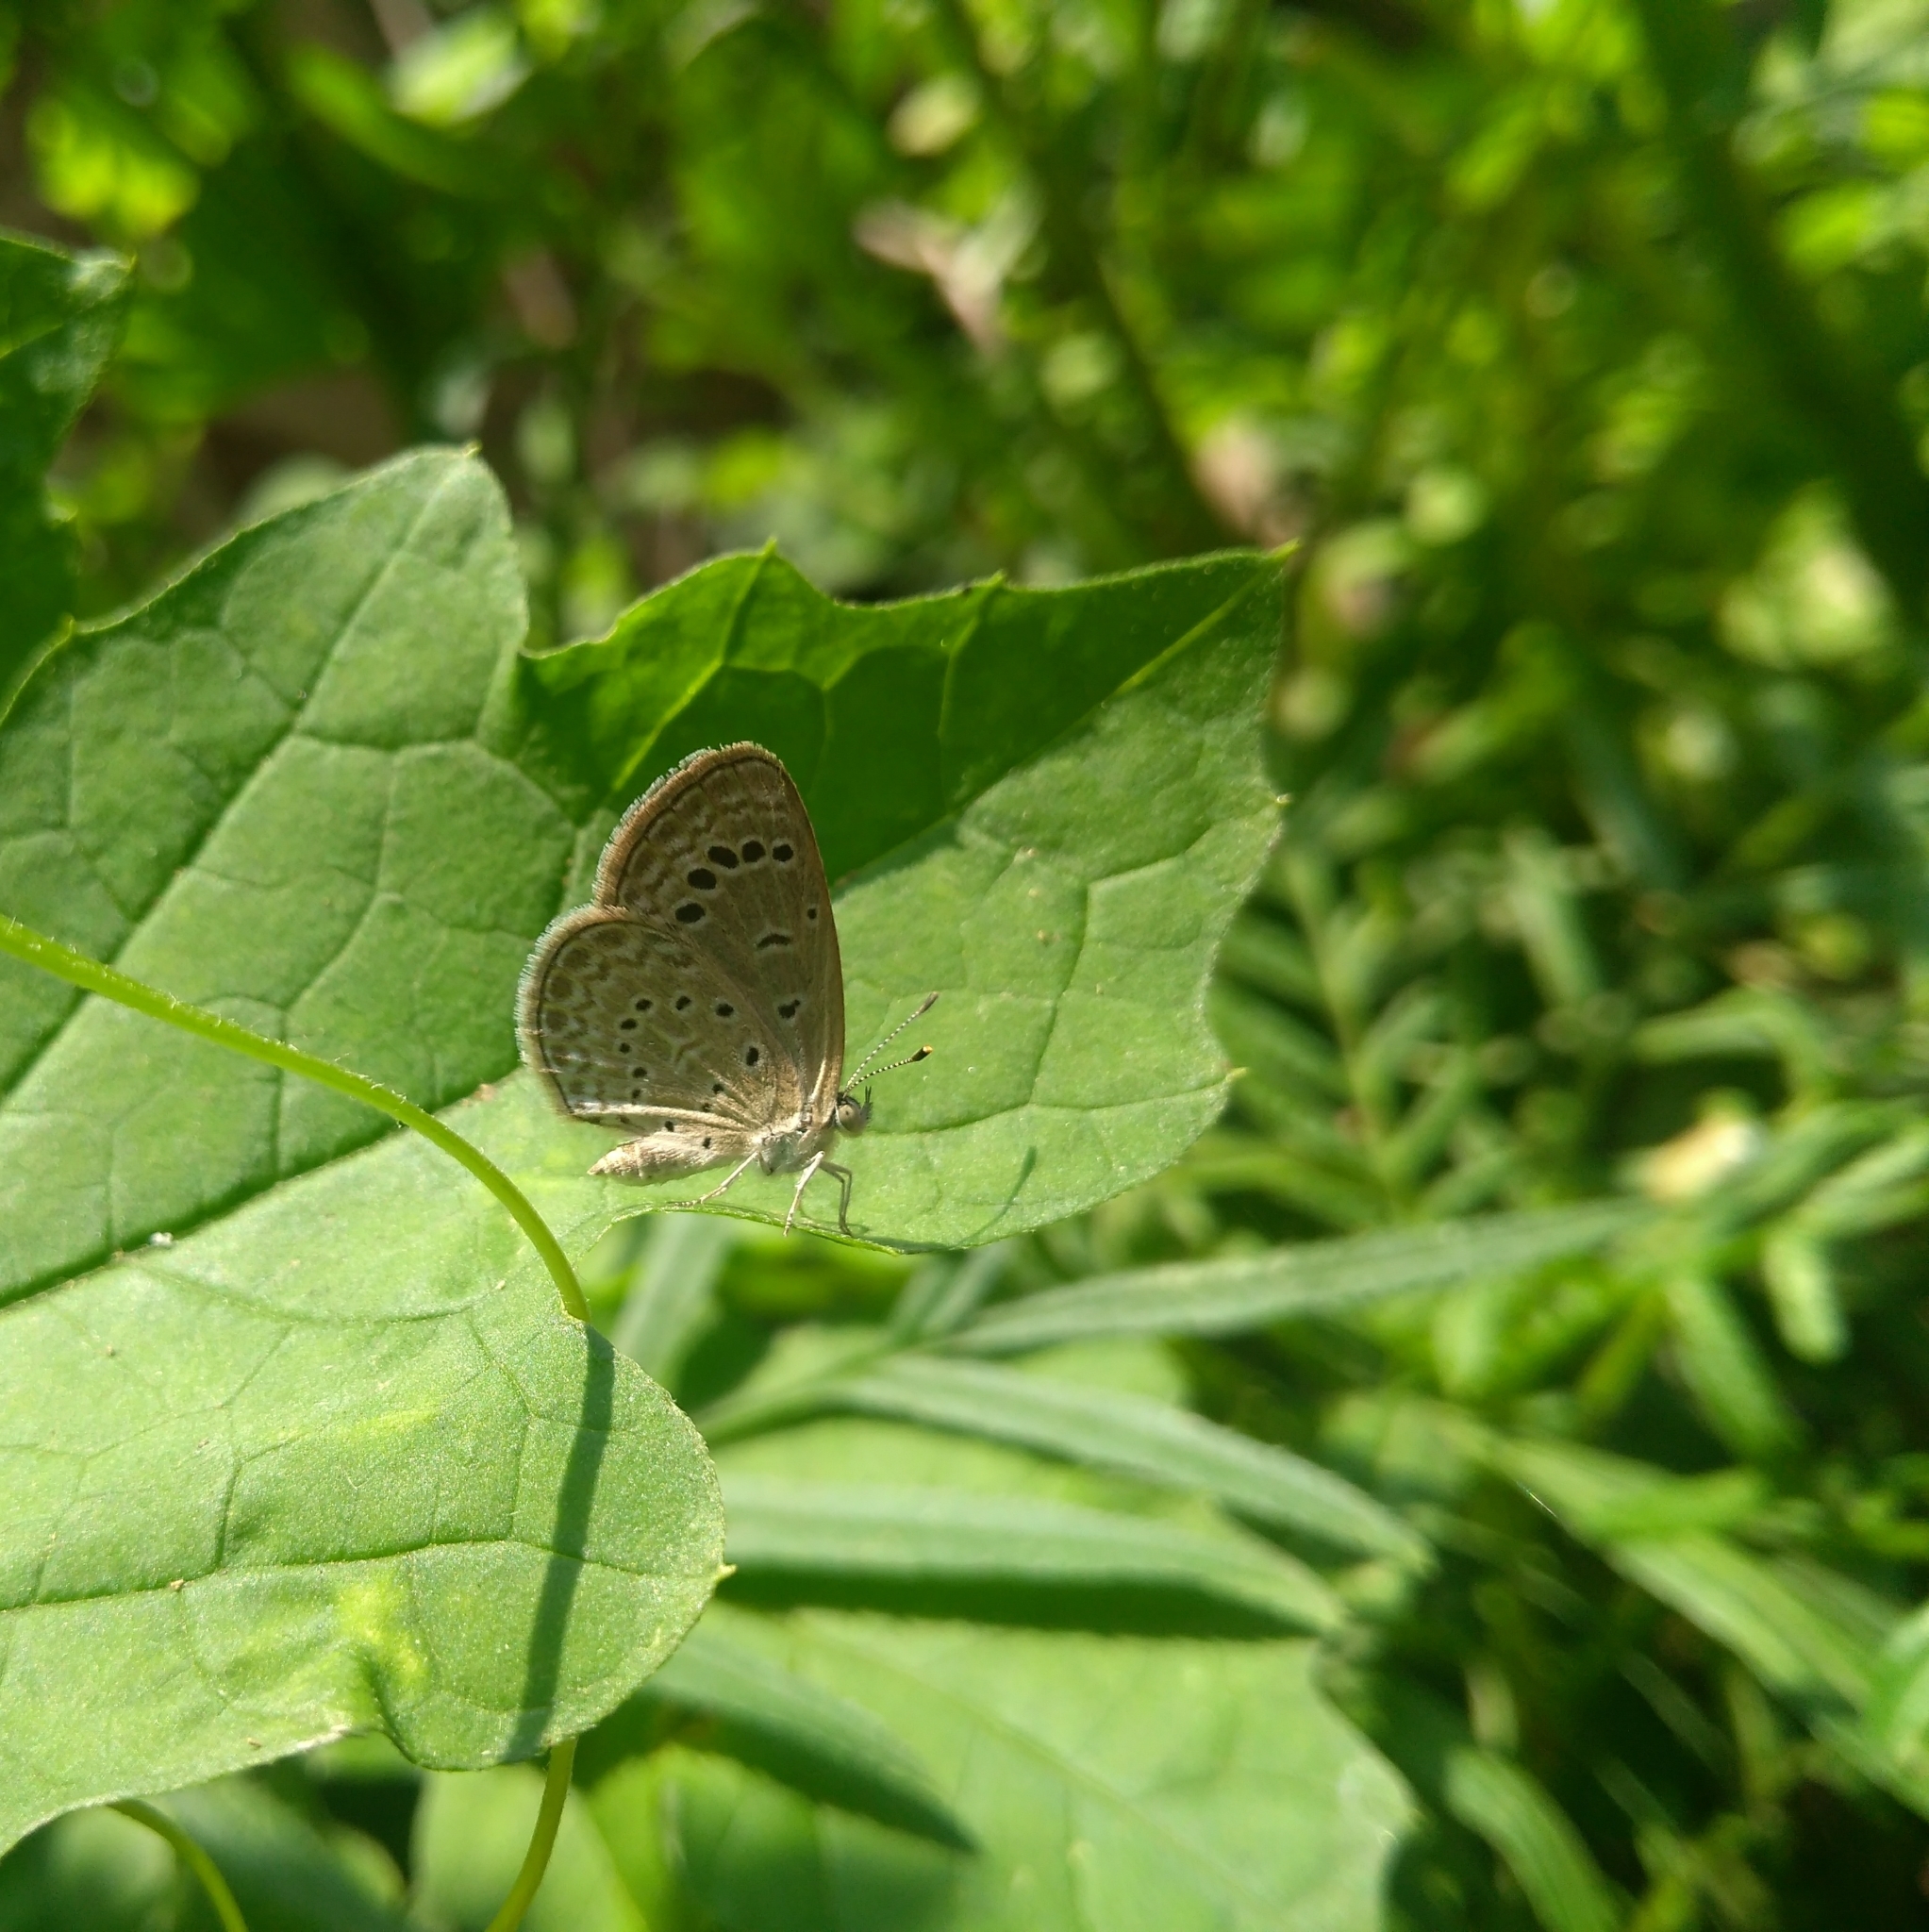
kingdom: Animalia
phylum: Arthropoda
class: Insecta
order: Lepidoptera
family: Lycaenidae
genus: Zizeeria
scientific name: Zizeeria karsandra
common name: Dark grass blue
